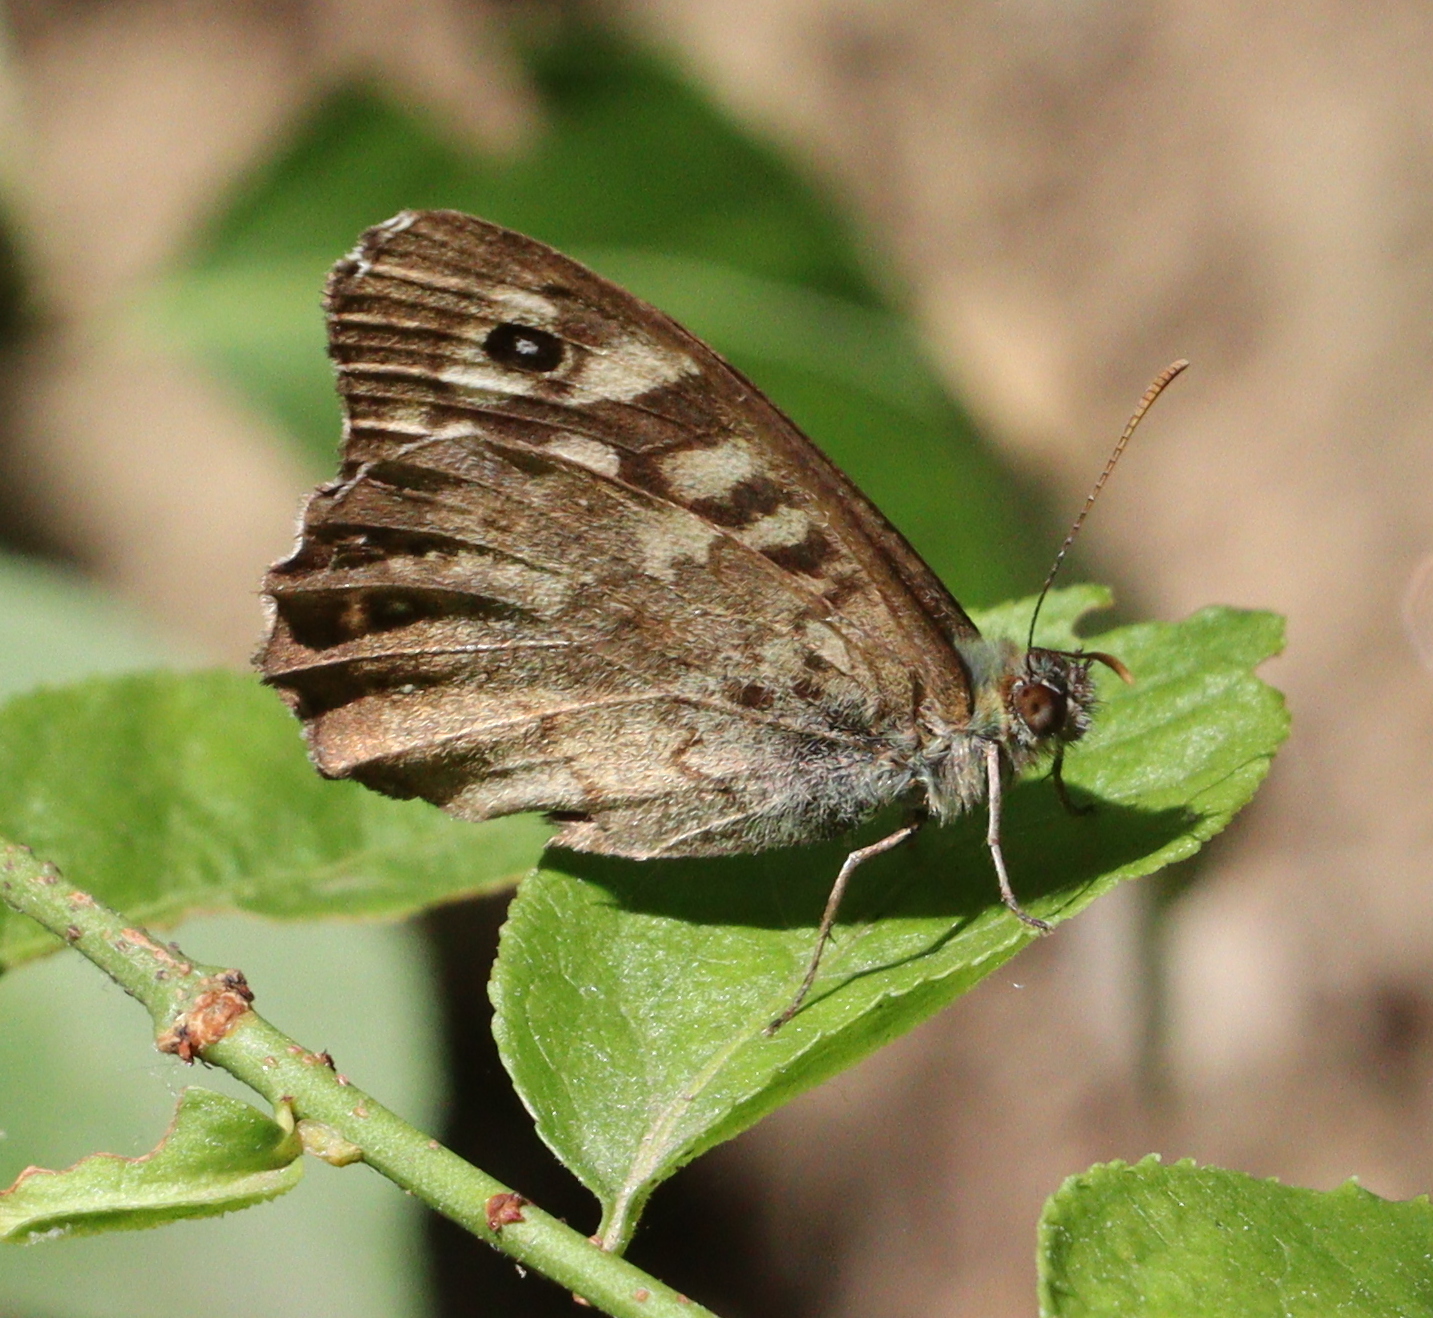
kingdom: Animalia
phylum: Arthropoda
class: Insecta
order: Lepidoptera
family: Nymphalidae
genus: Pararge
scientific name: Pararge aegeria
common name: Speckled wood
